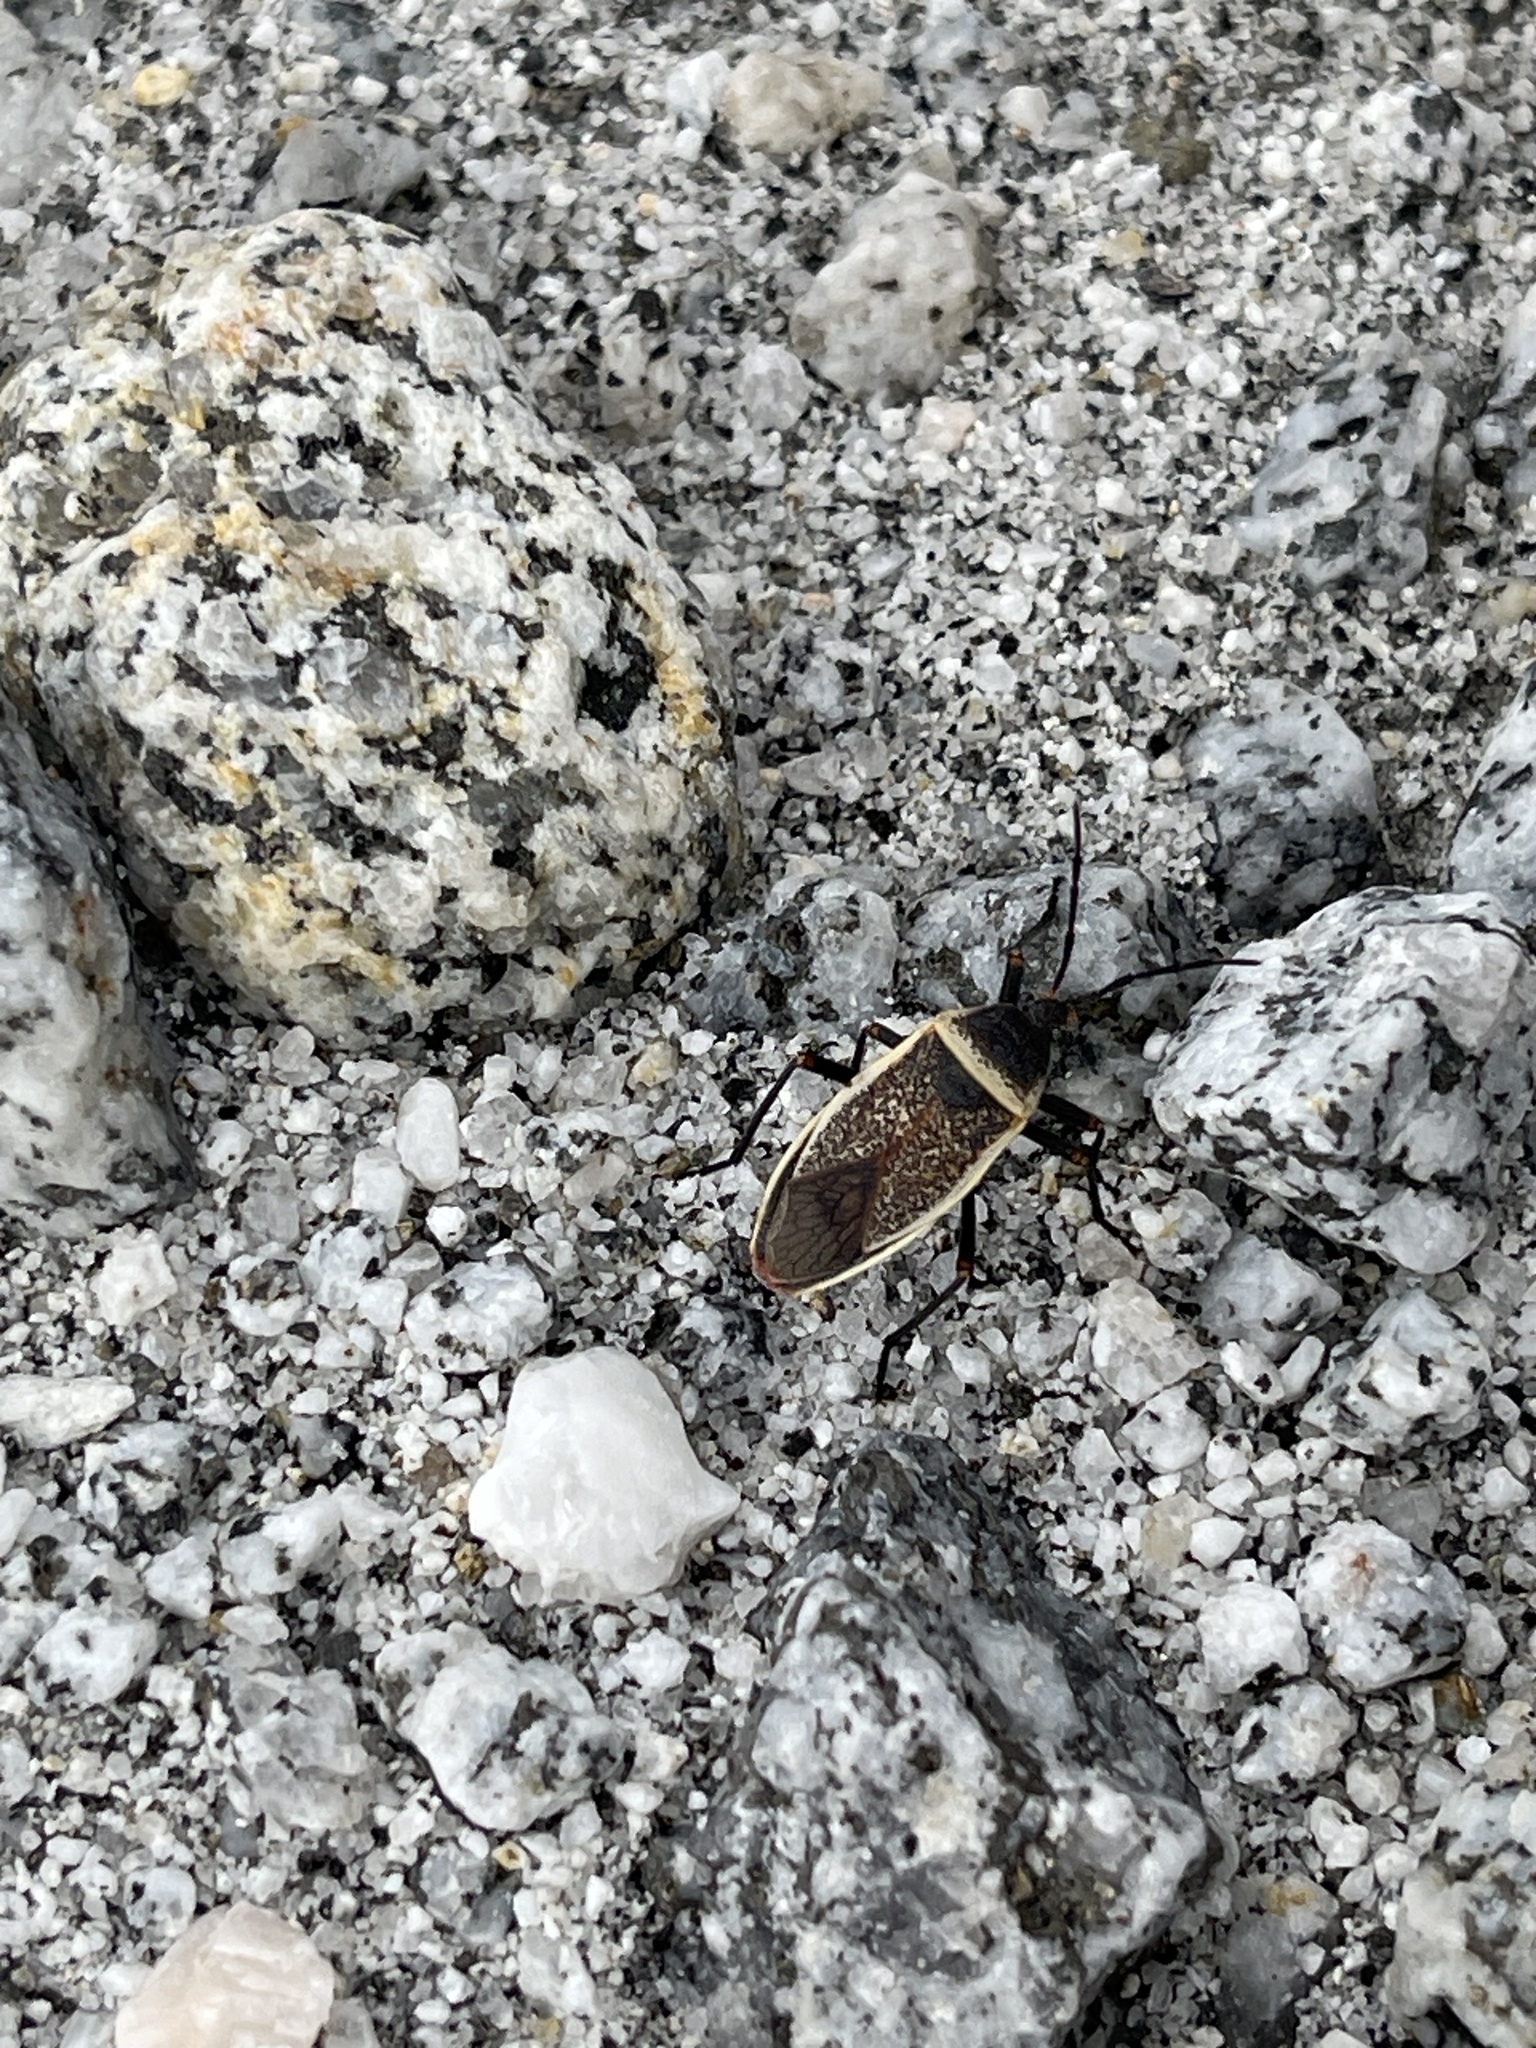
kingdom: Animalia
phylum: Arthropoda
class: Insecta
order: Hemiptera
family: Largidae
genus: Largus
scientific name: Largus californicus
